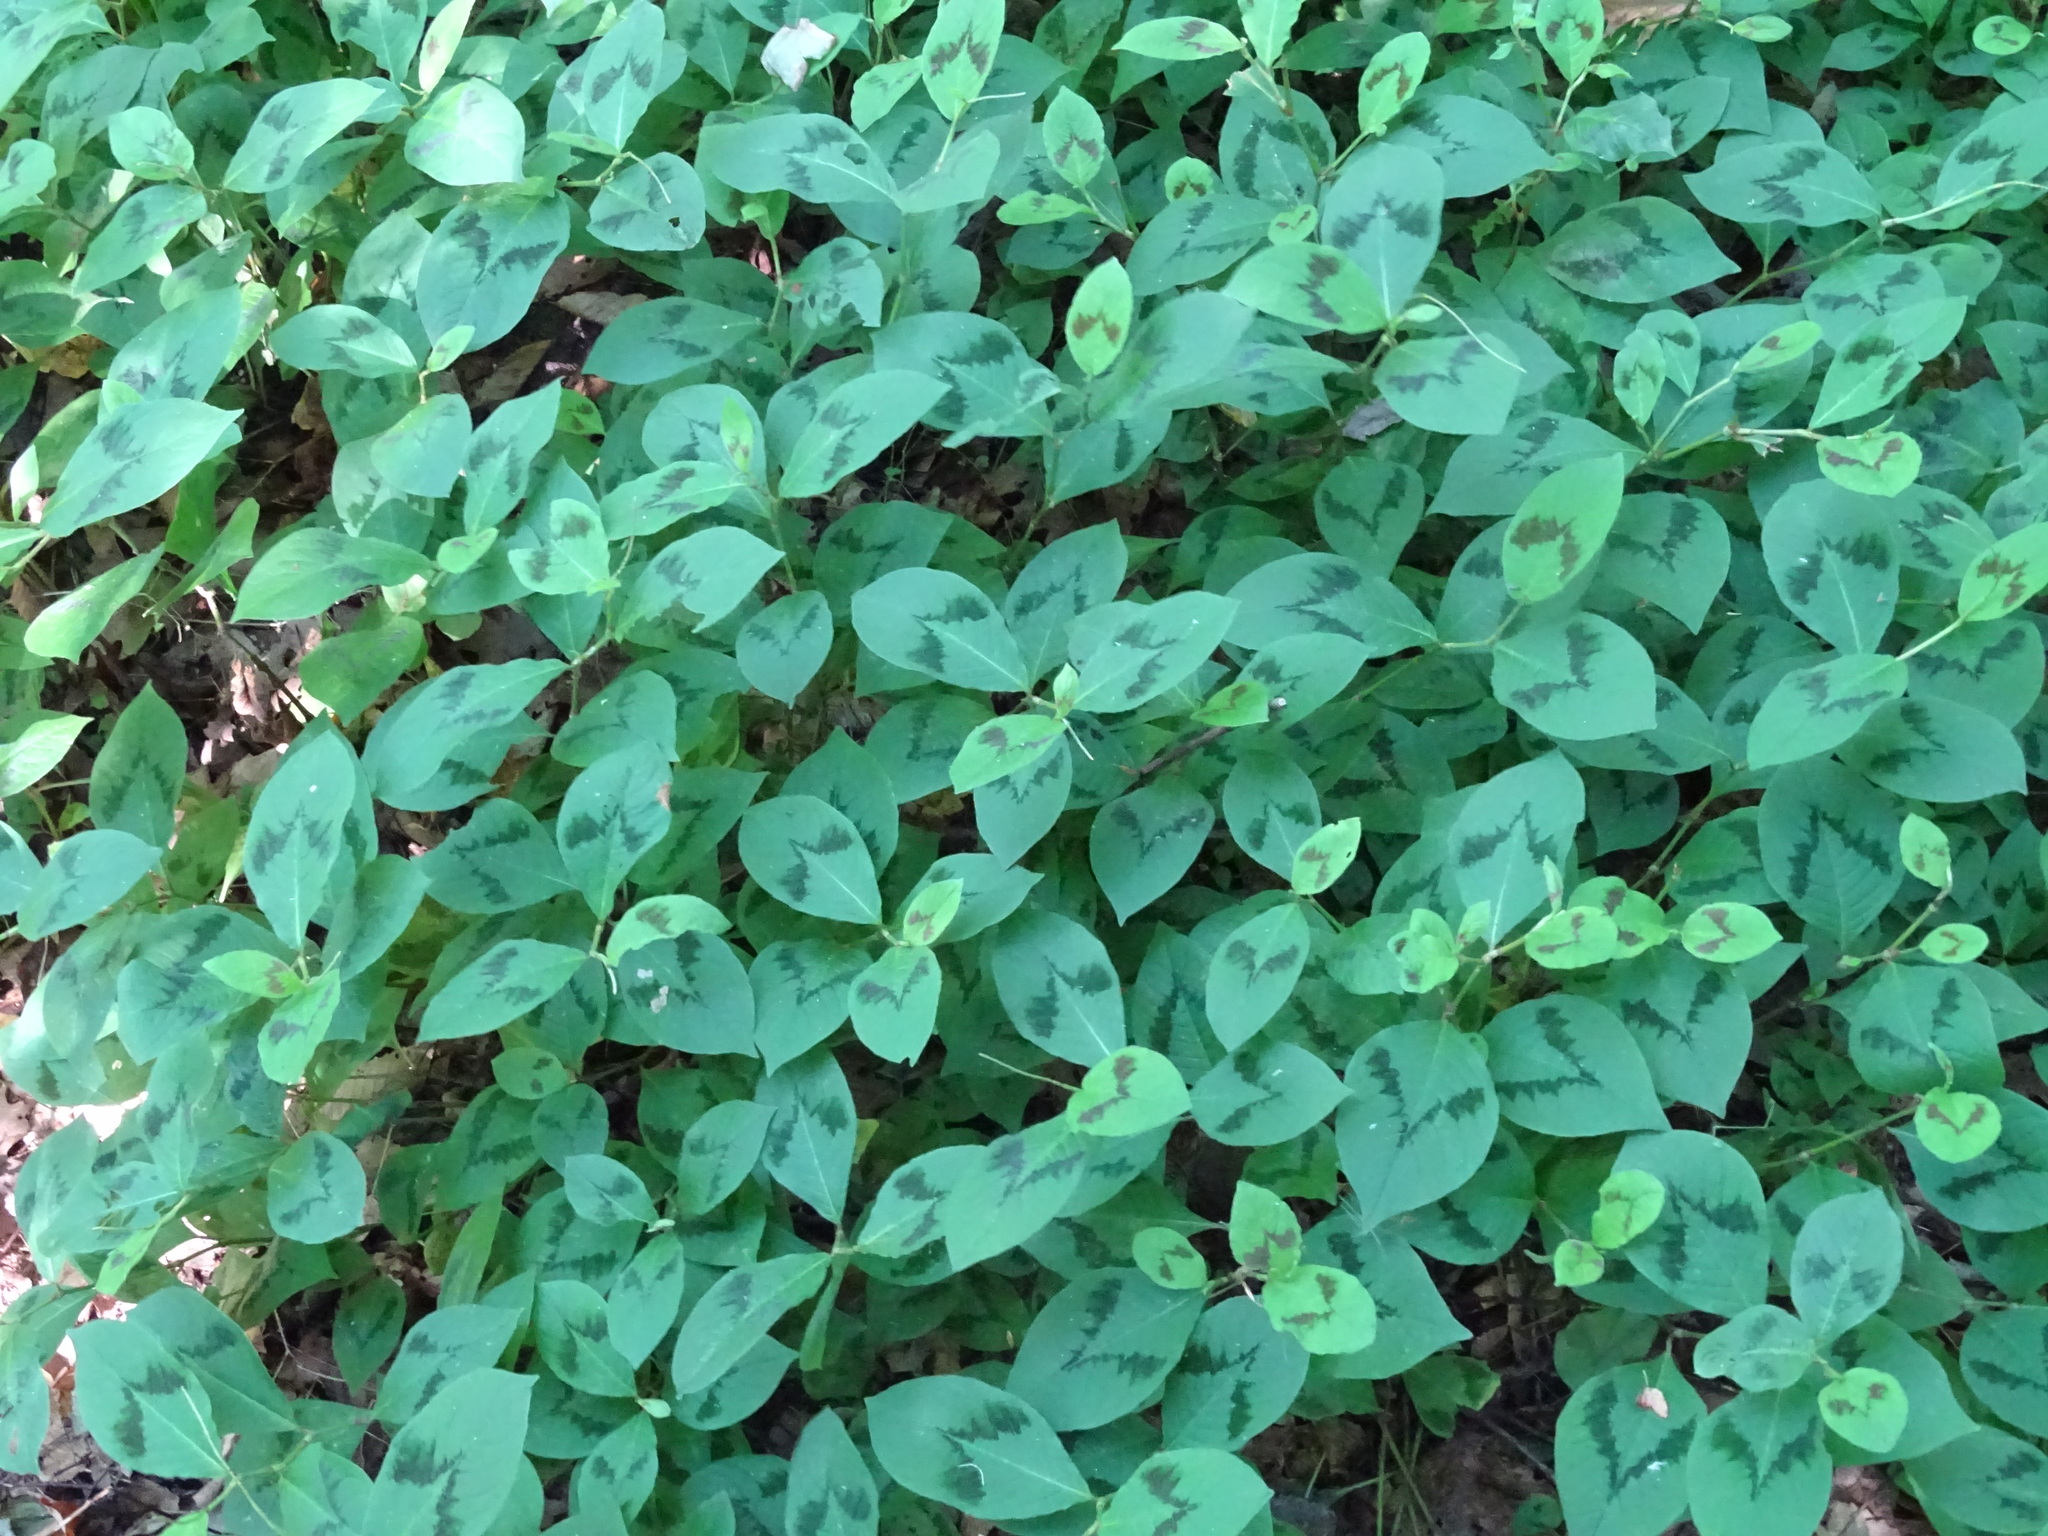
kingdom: Plantae
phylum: Tracheophyta
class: Magnoliopsida
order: Caryophyllales
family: Polygonaceae
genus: Persicaria
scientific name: Persicaria filiformis
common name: Asian jumpseed
